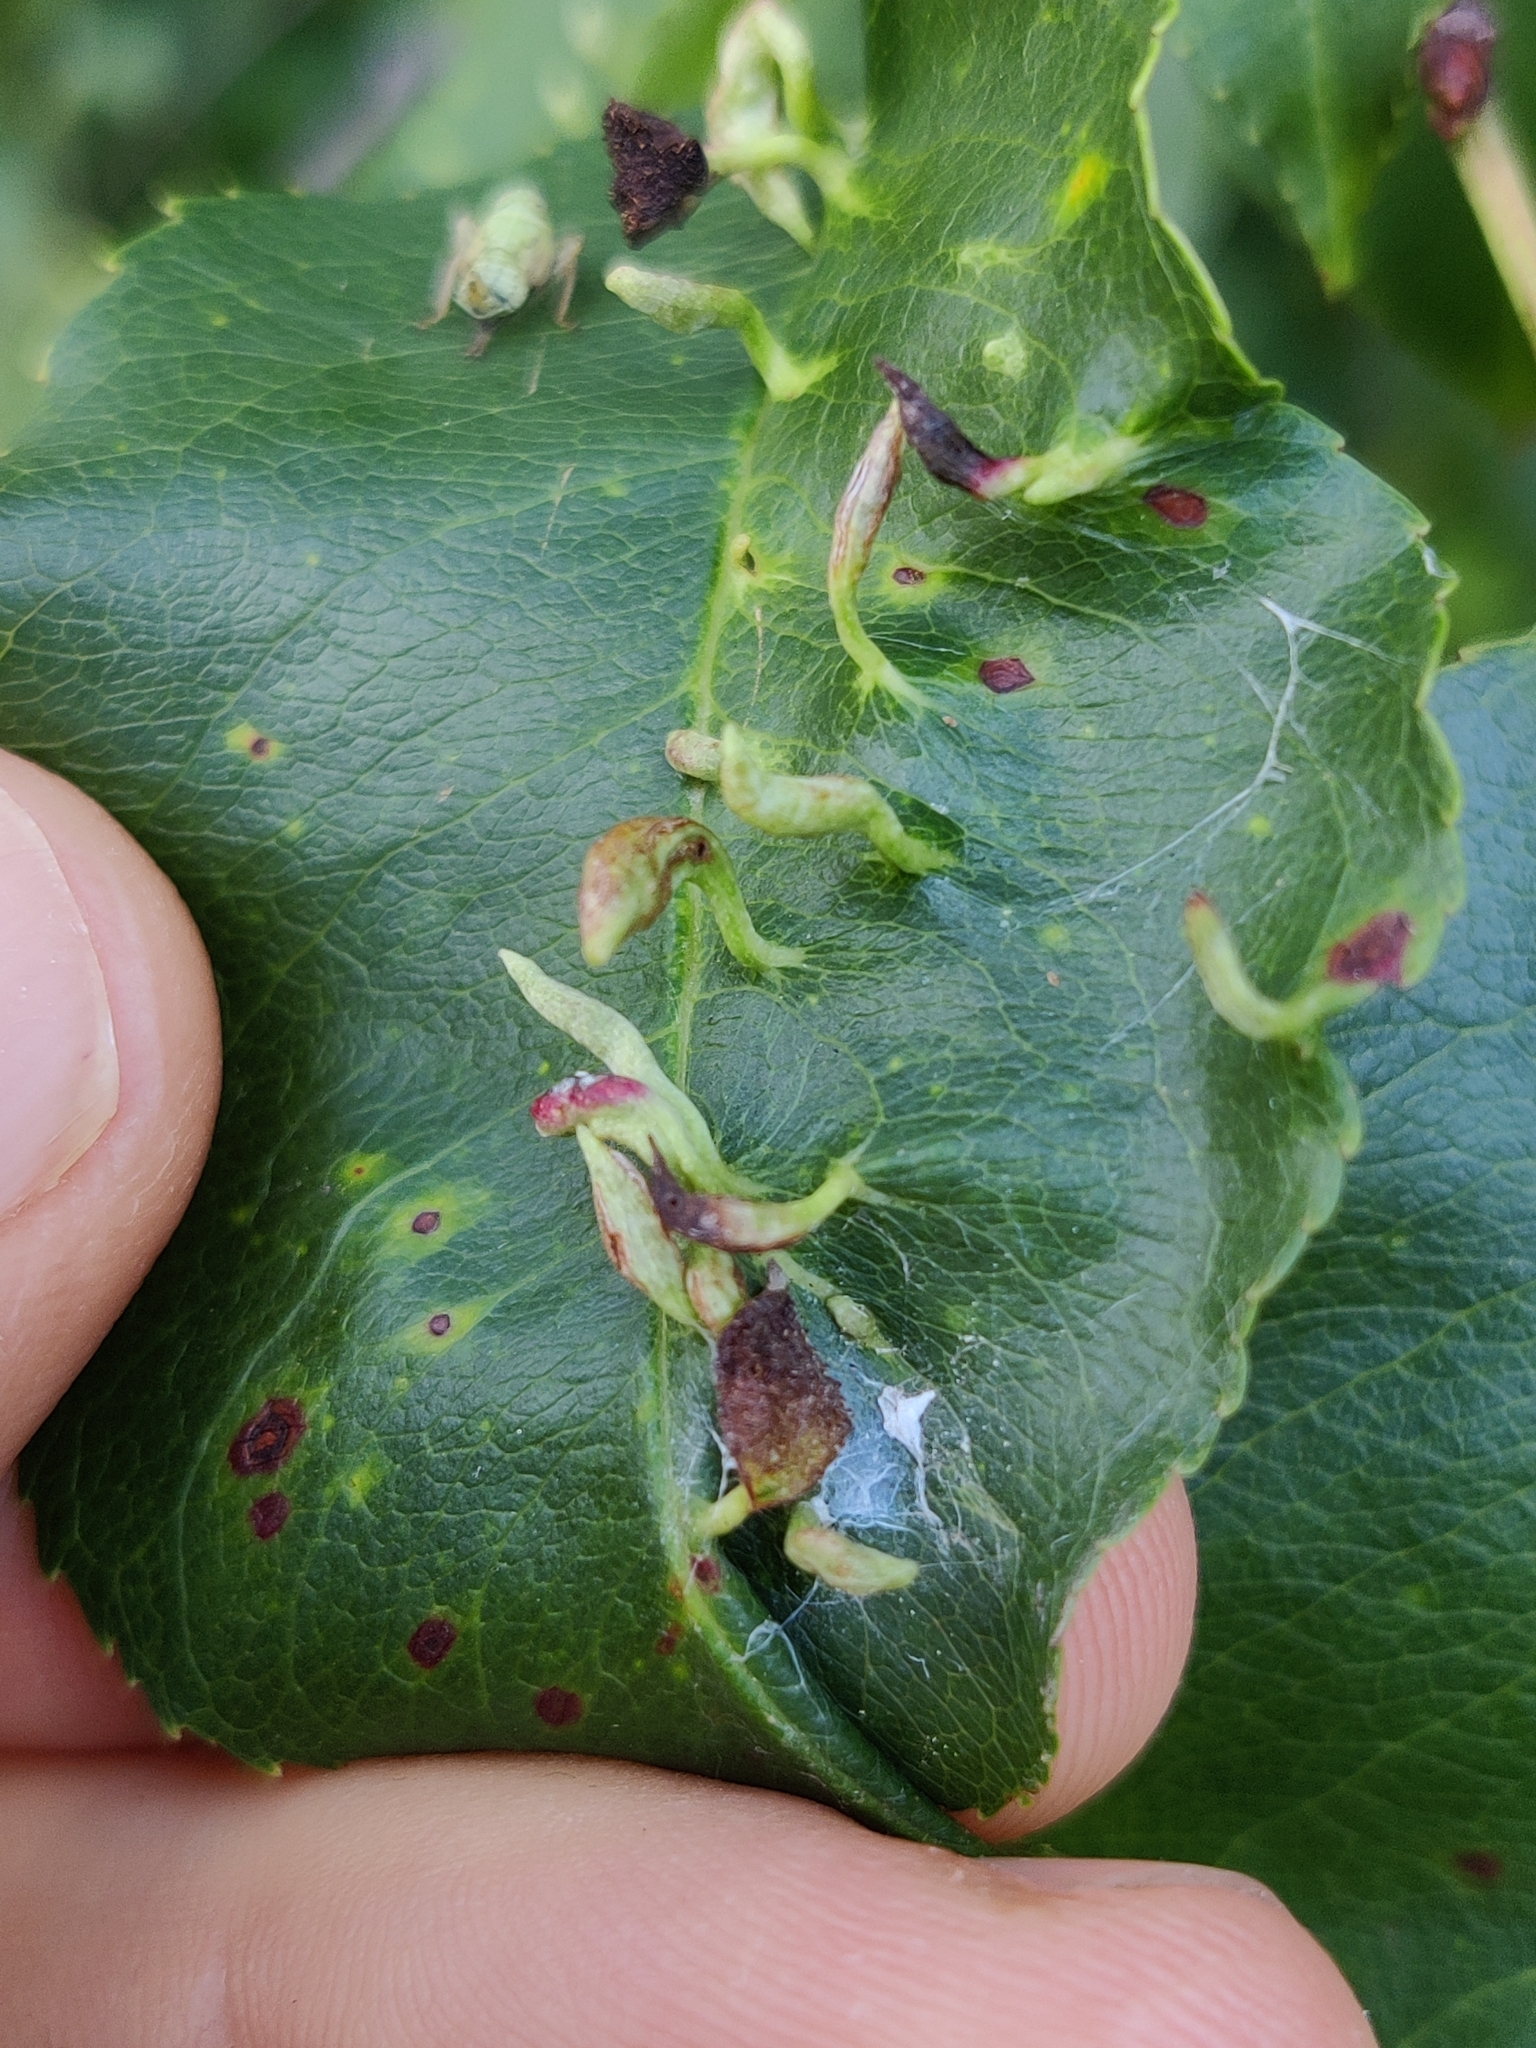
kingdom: Animalia
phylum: Arthropoda
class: Arachnida
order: Trombidiformes
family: Eriophyidae
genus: Eriophyes
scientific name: Eriophyes
